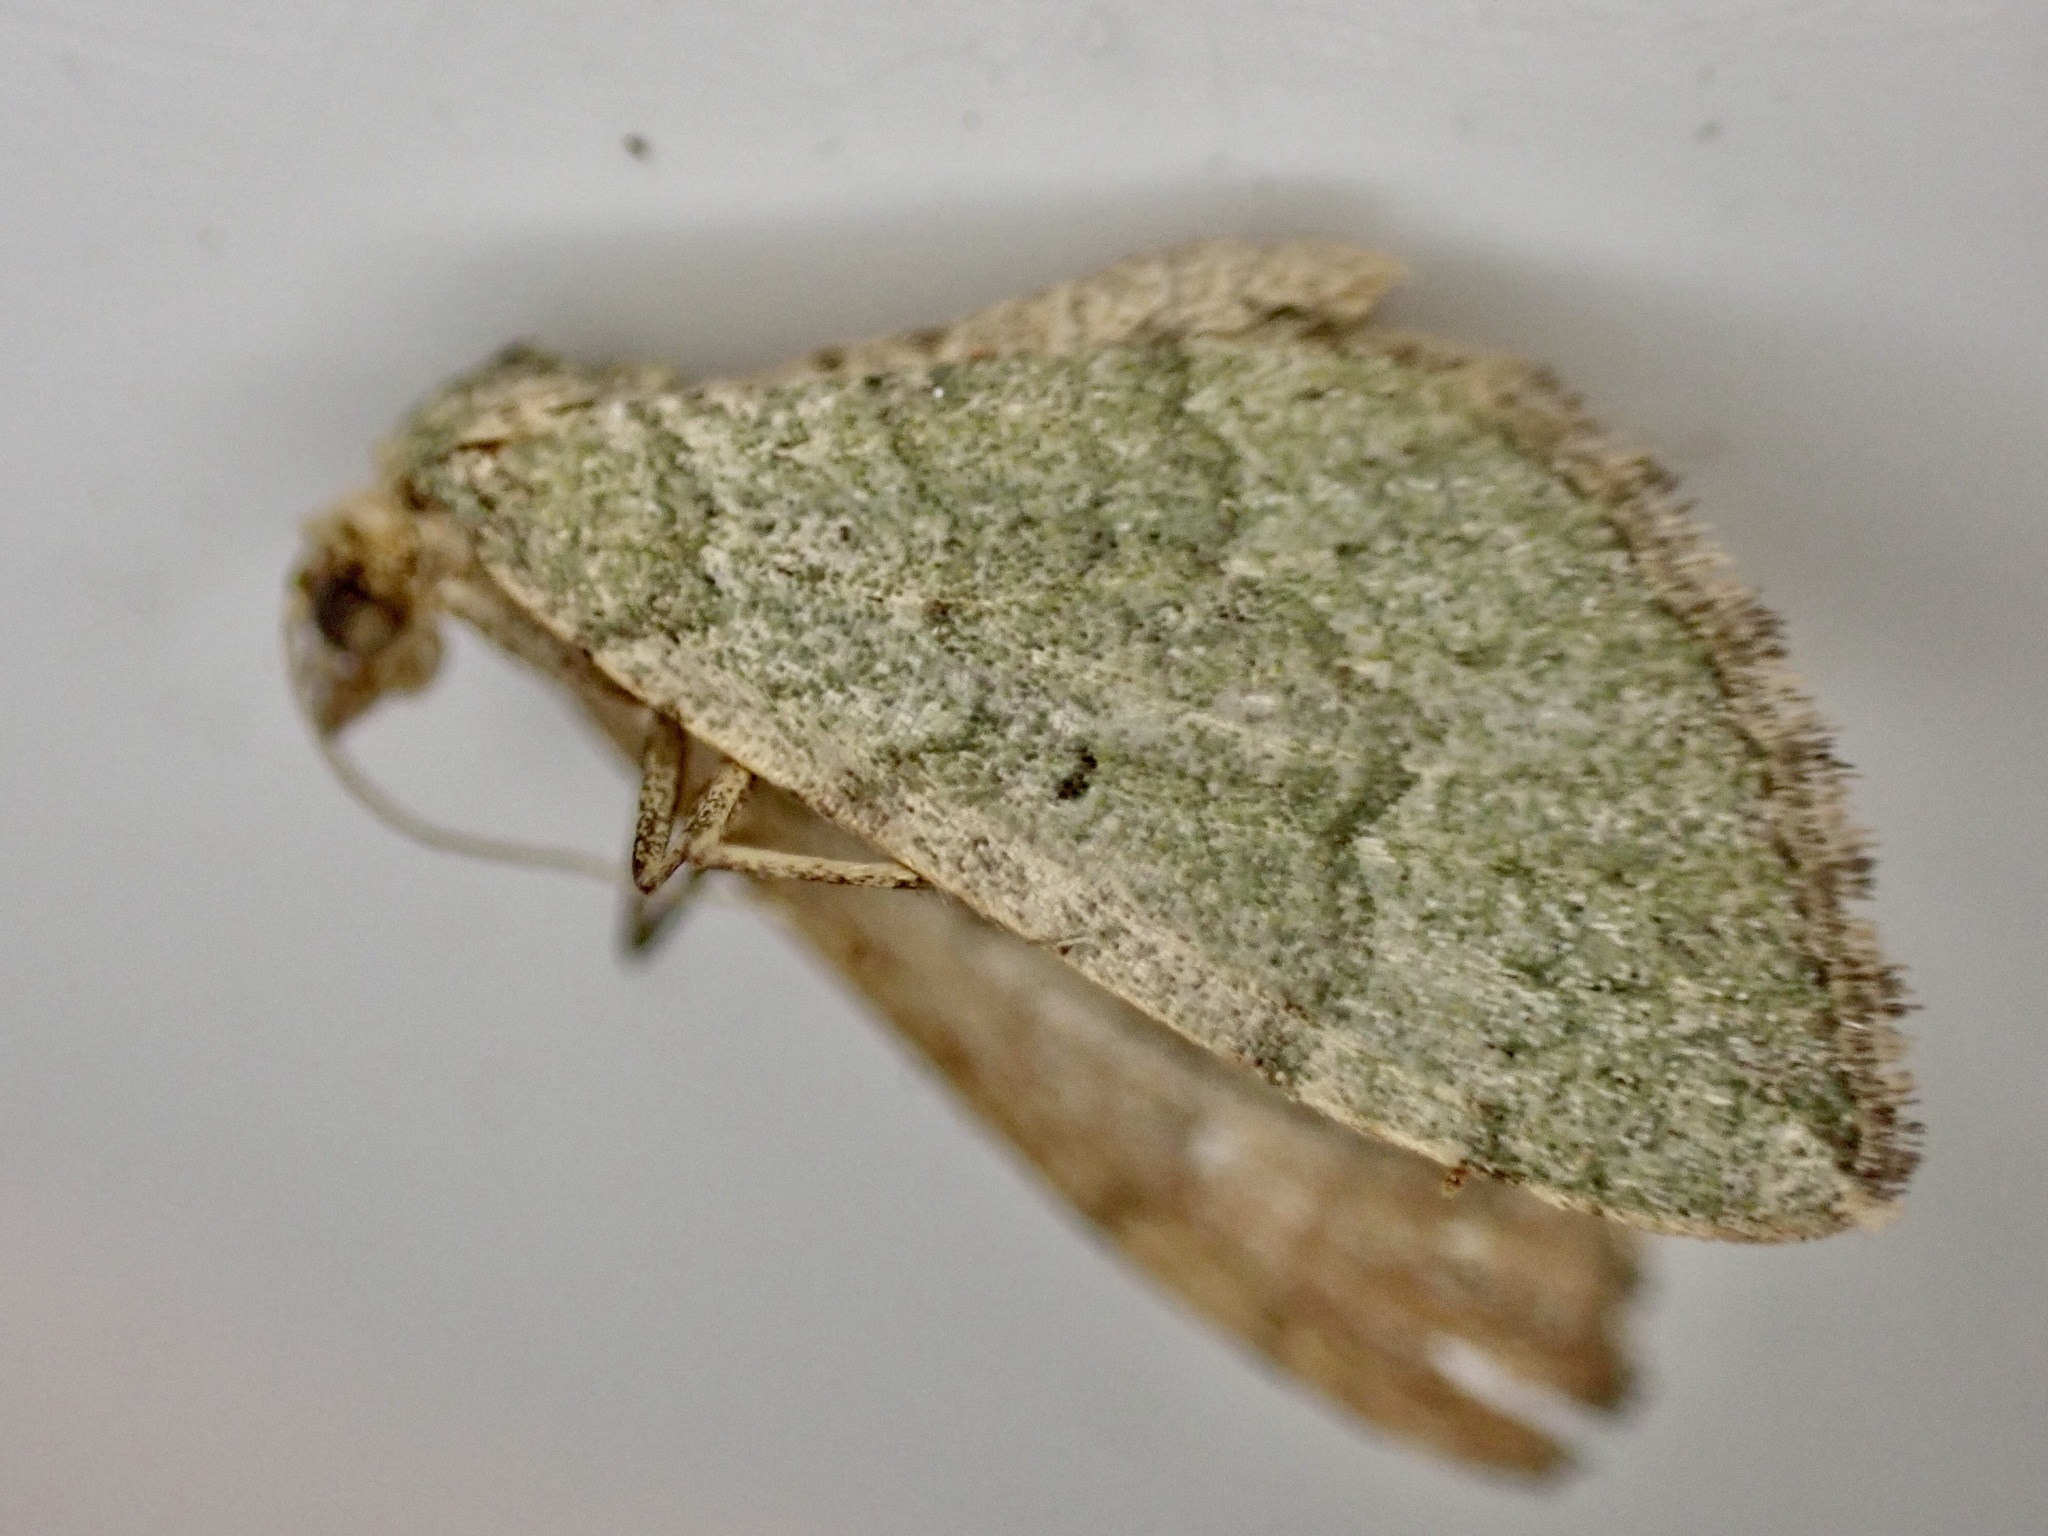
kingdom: Animalia
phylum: Arthropoda
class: Insecta
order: Lepidoptera
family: Geometridae
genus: Epyaxa
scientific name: Epyaxa rosearia
